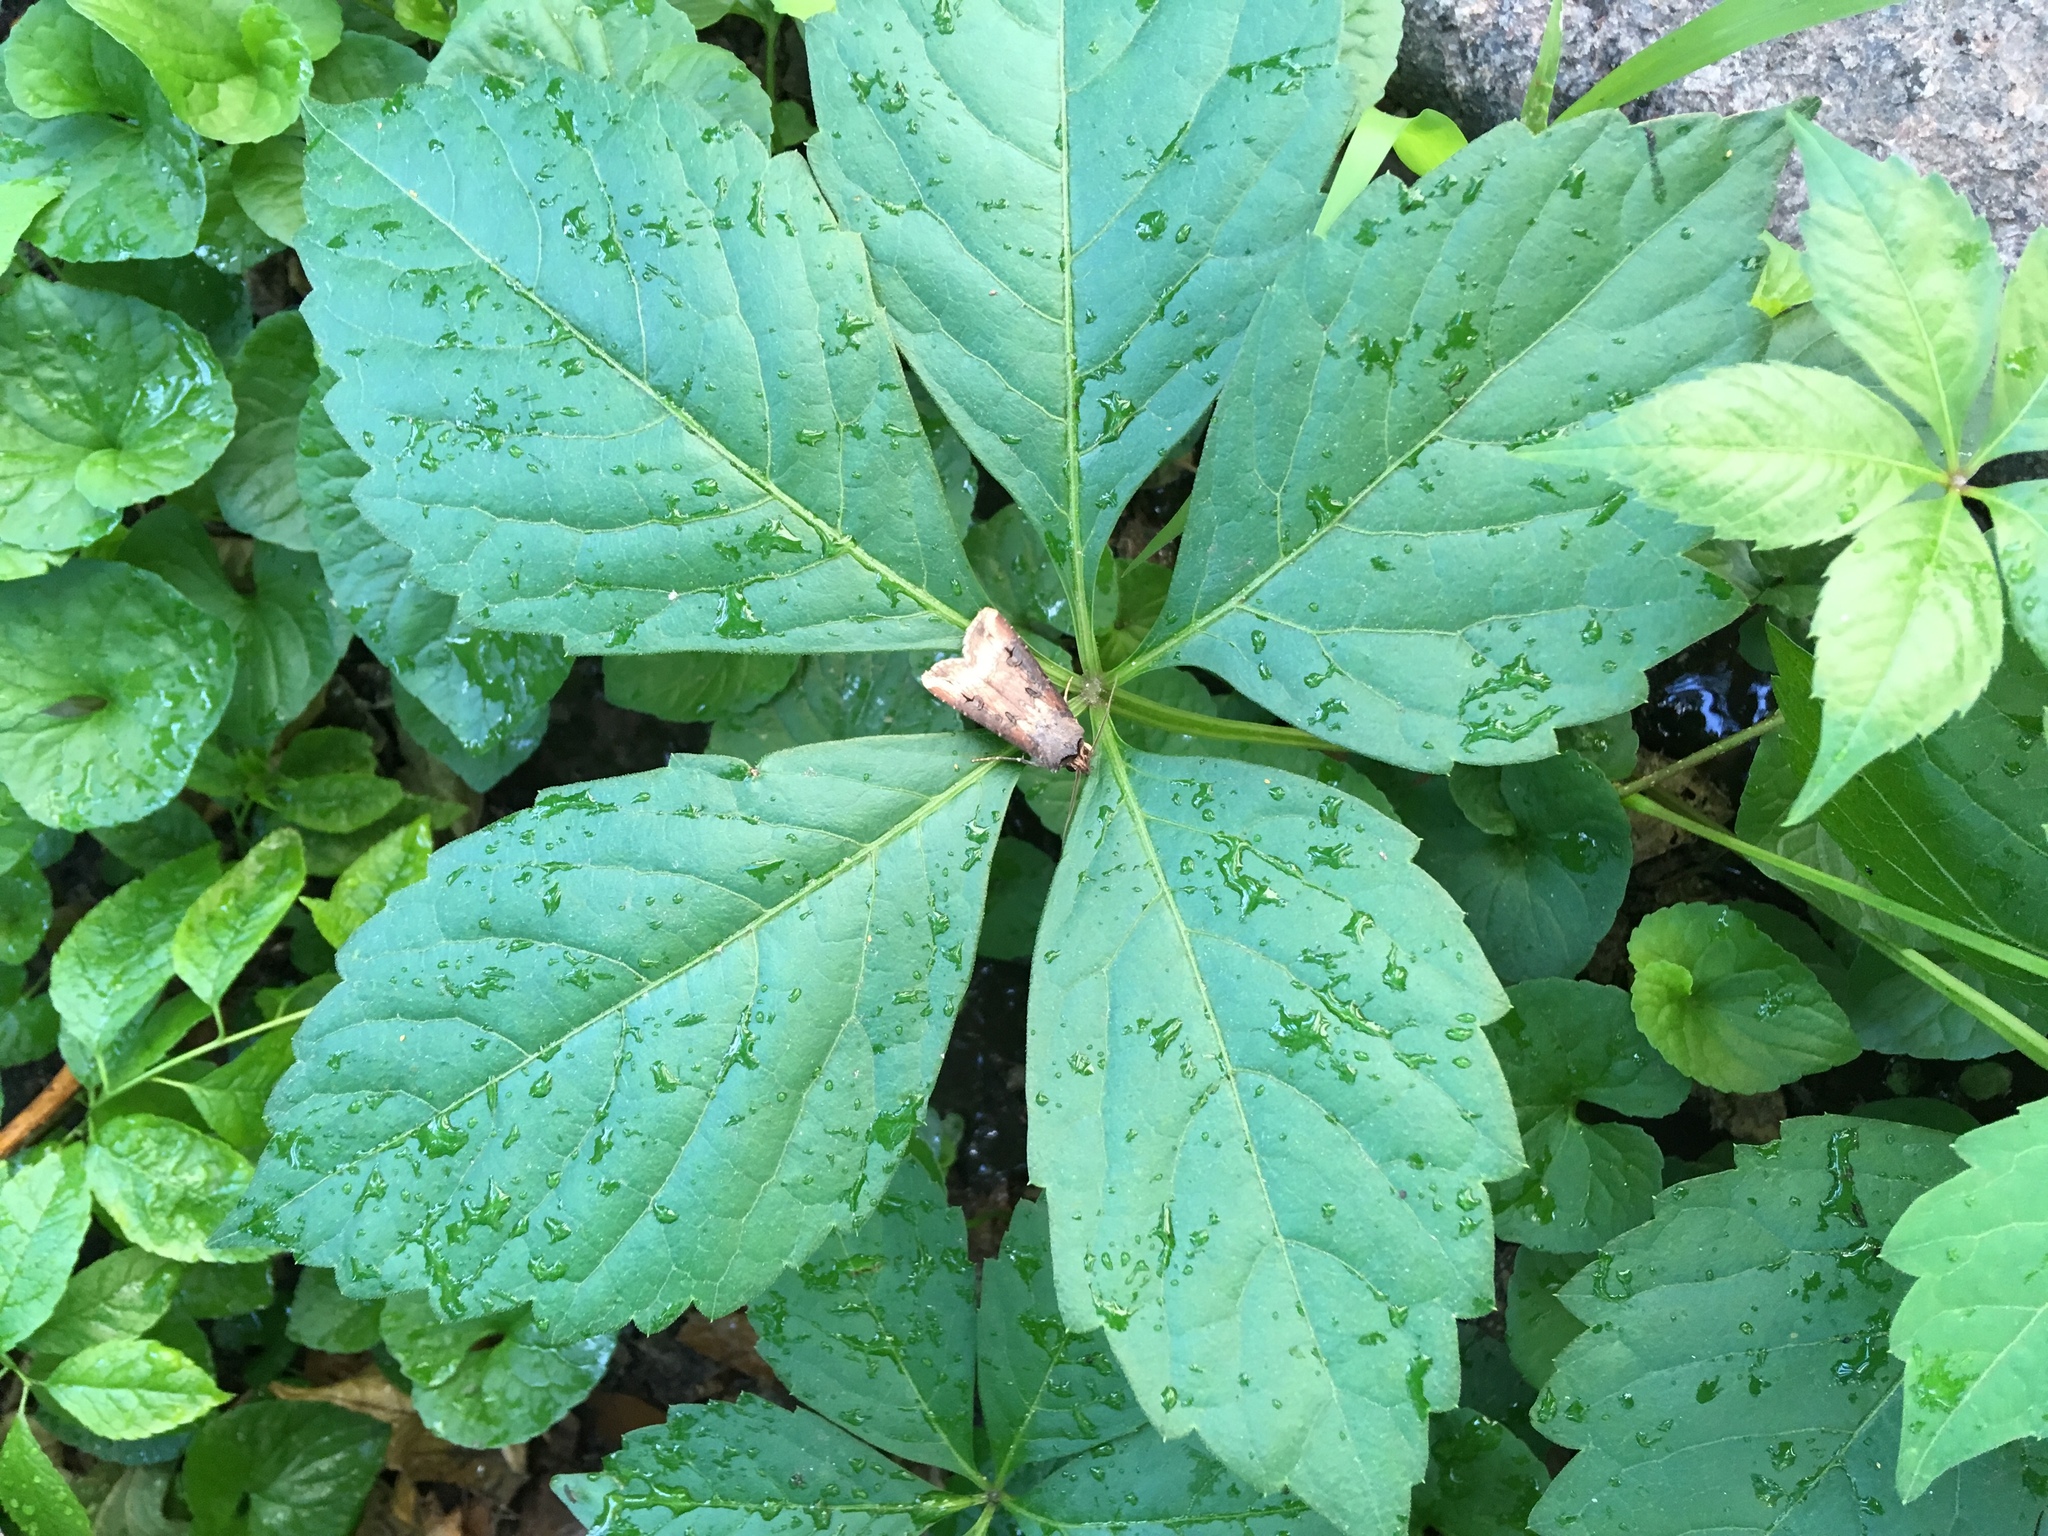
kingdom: Animalia
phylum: Arthropoda
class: Insecta
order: Lepidoptera
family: Noctuidae
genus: Agrotis
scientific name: Agrotis ipsilon
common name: Dark sword-grass
